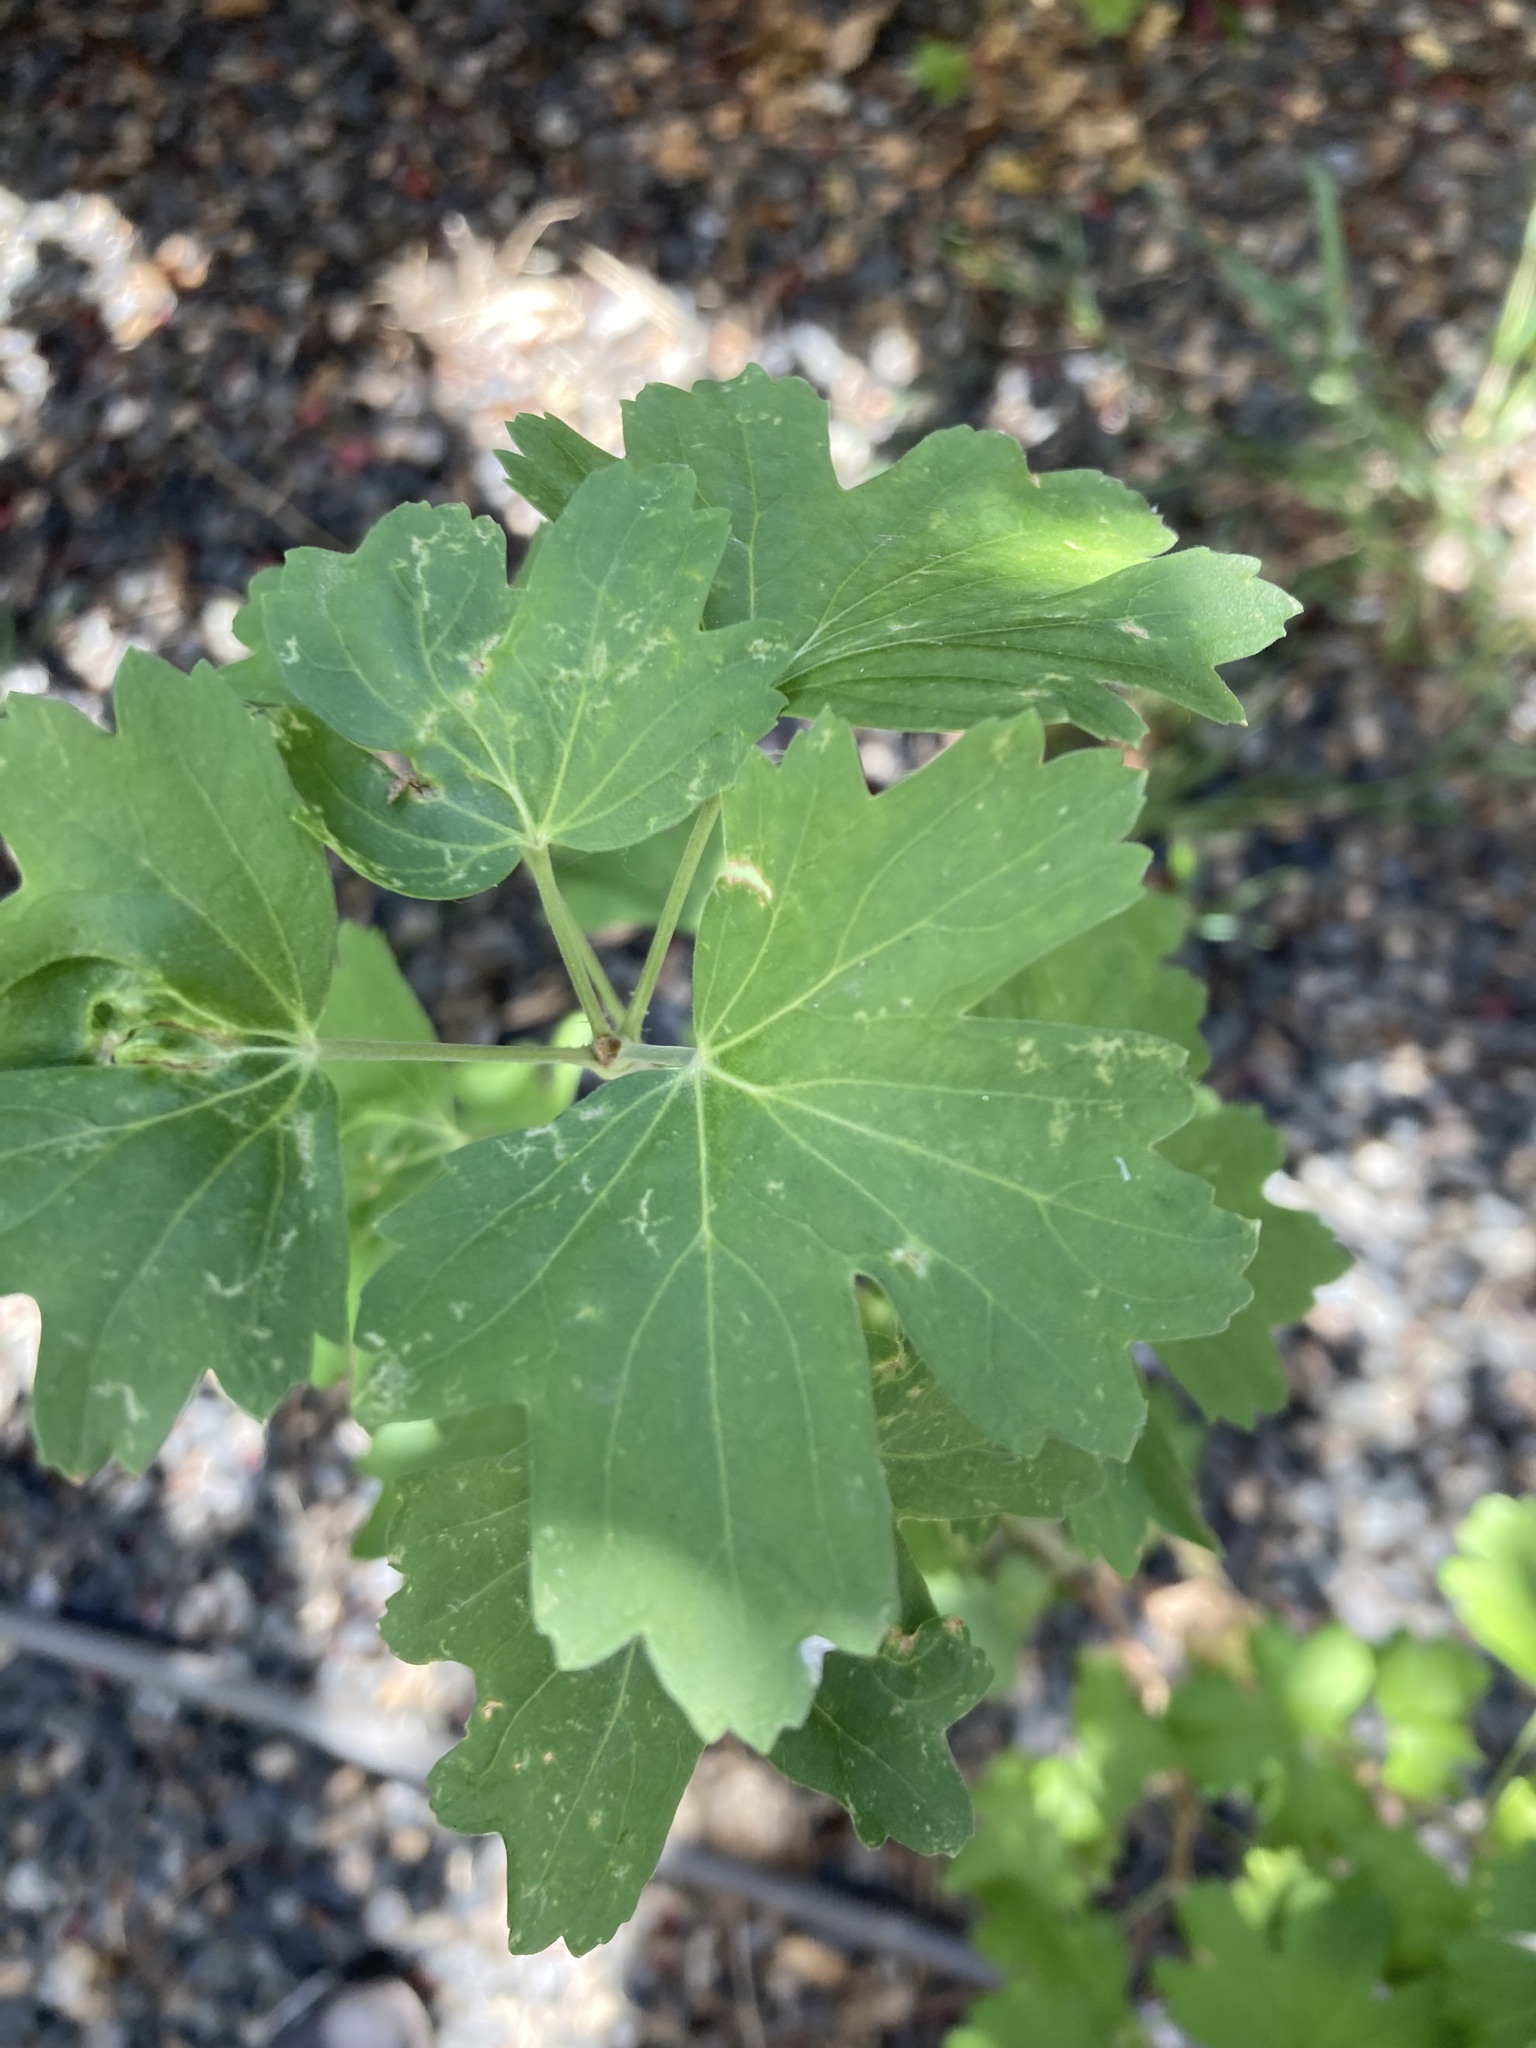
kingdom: Plantae
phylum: Tracheophyta
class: Magnoliopsida
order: Saxifragales
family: Grossulariaceae
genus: Ribes
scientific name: Ribes aureum
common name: Golden currant
